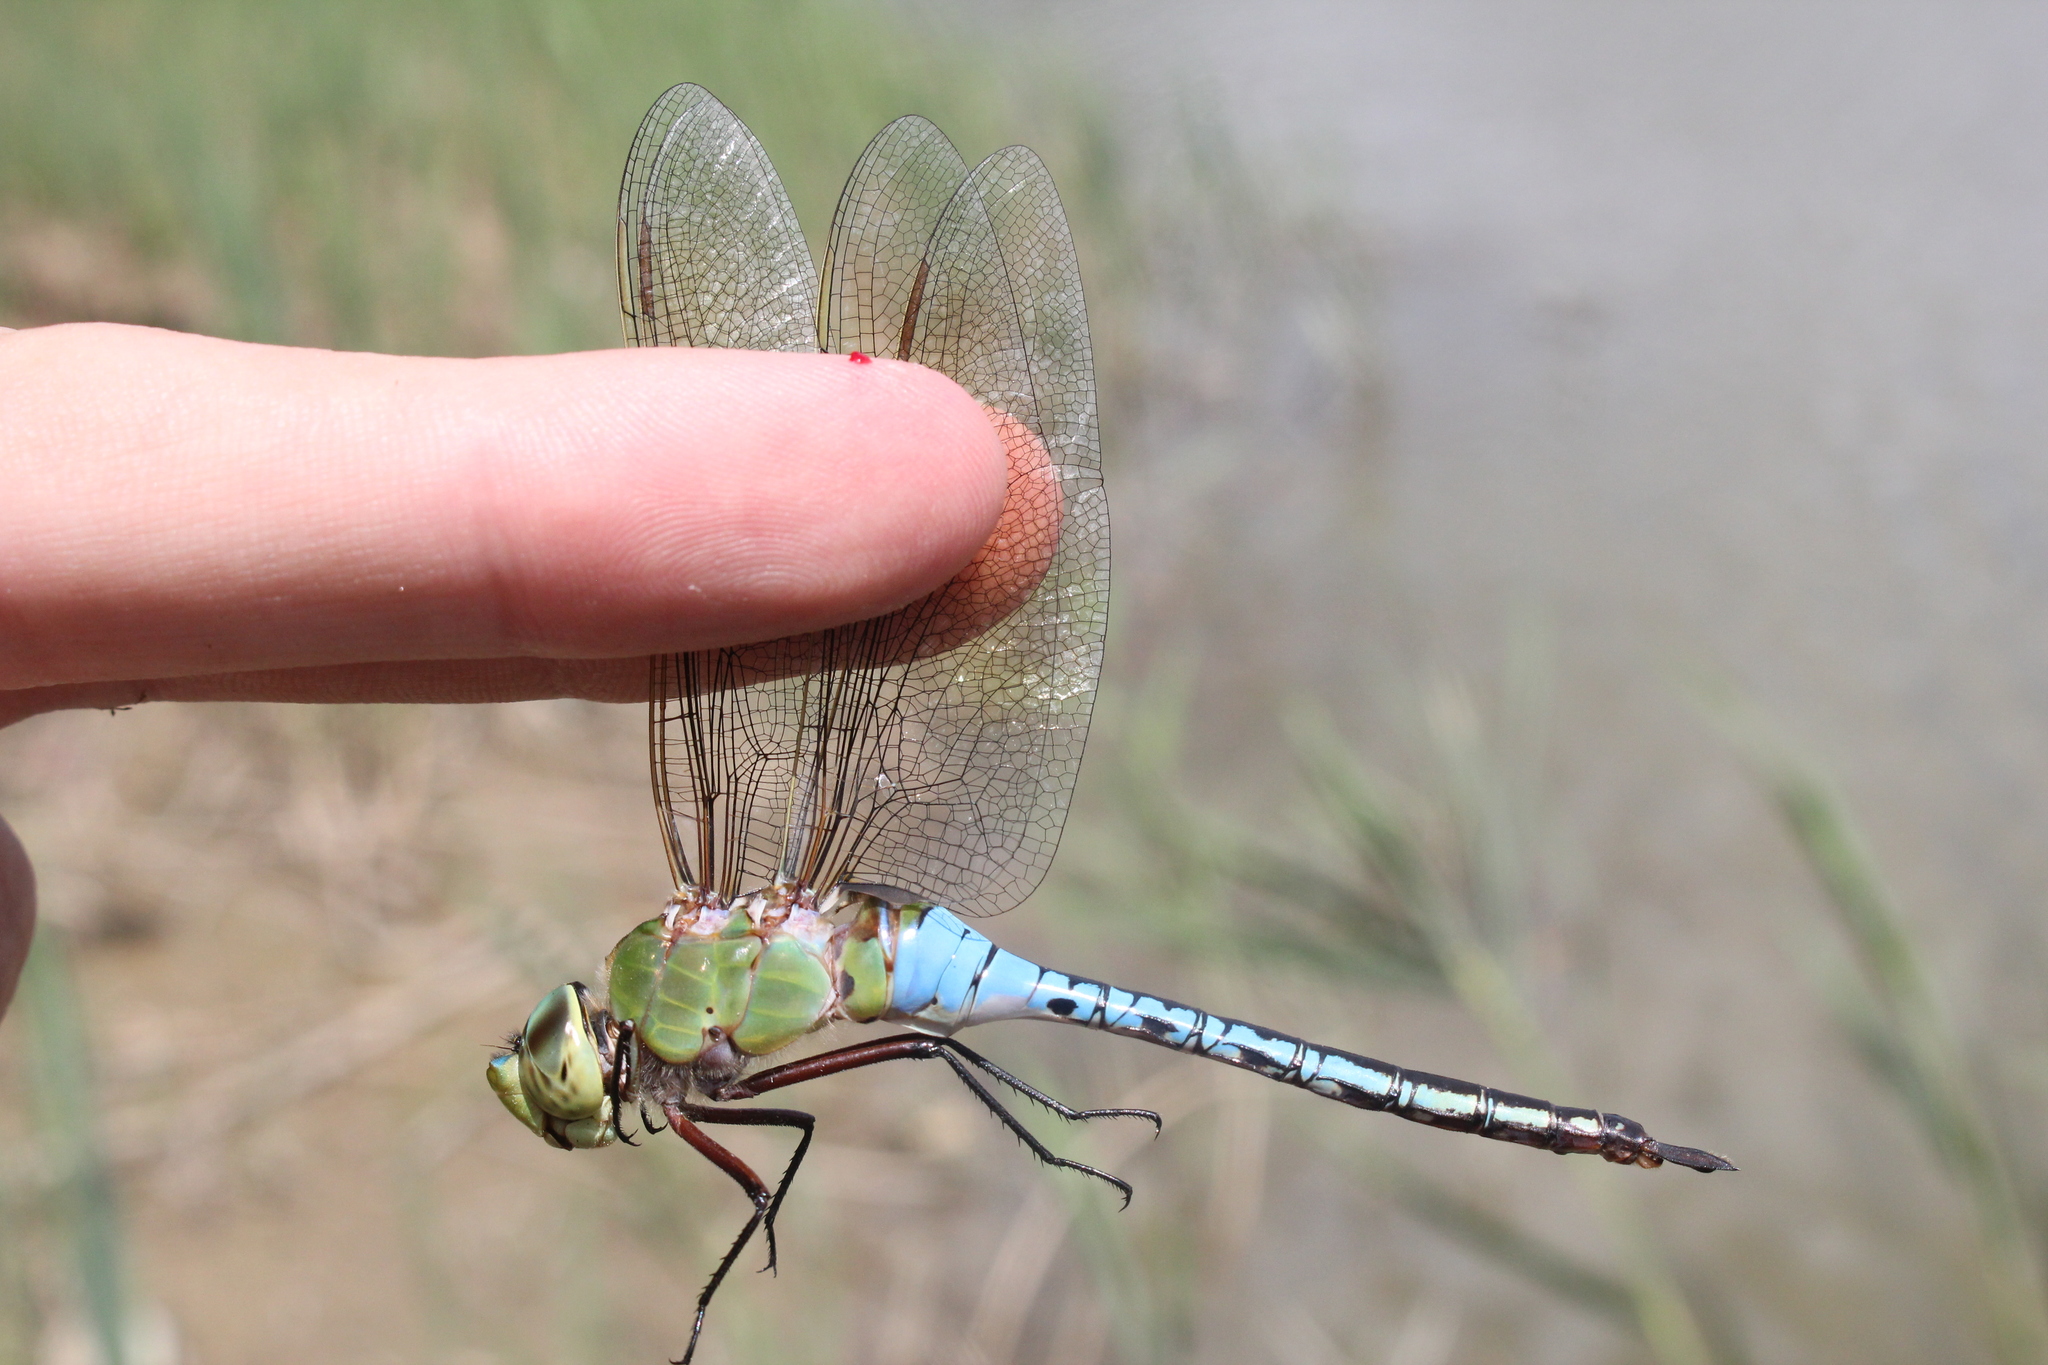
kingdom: Animalia
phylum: Arthropoda
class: Insecta
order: Odonata
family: Aeshnidae
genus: Anax
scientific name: Anax junius
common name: Common green darner
